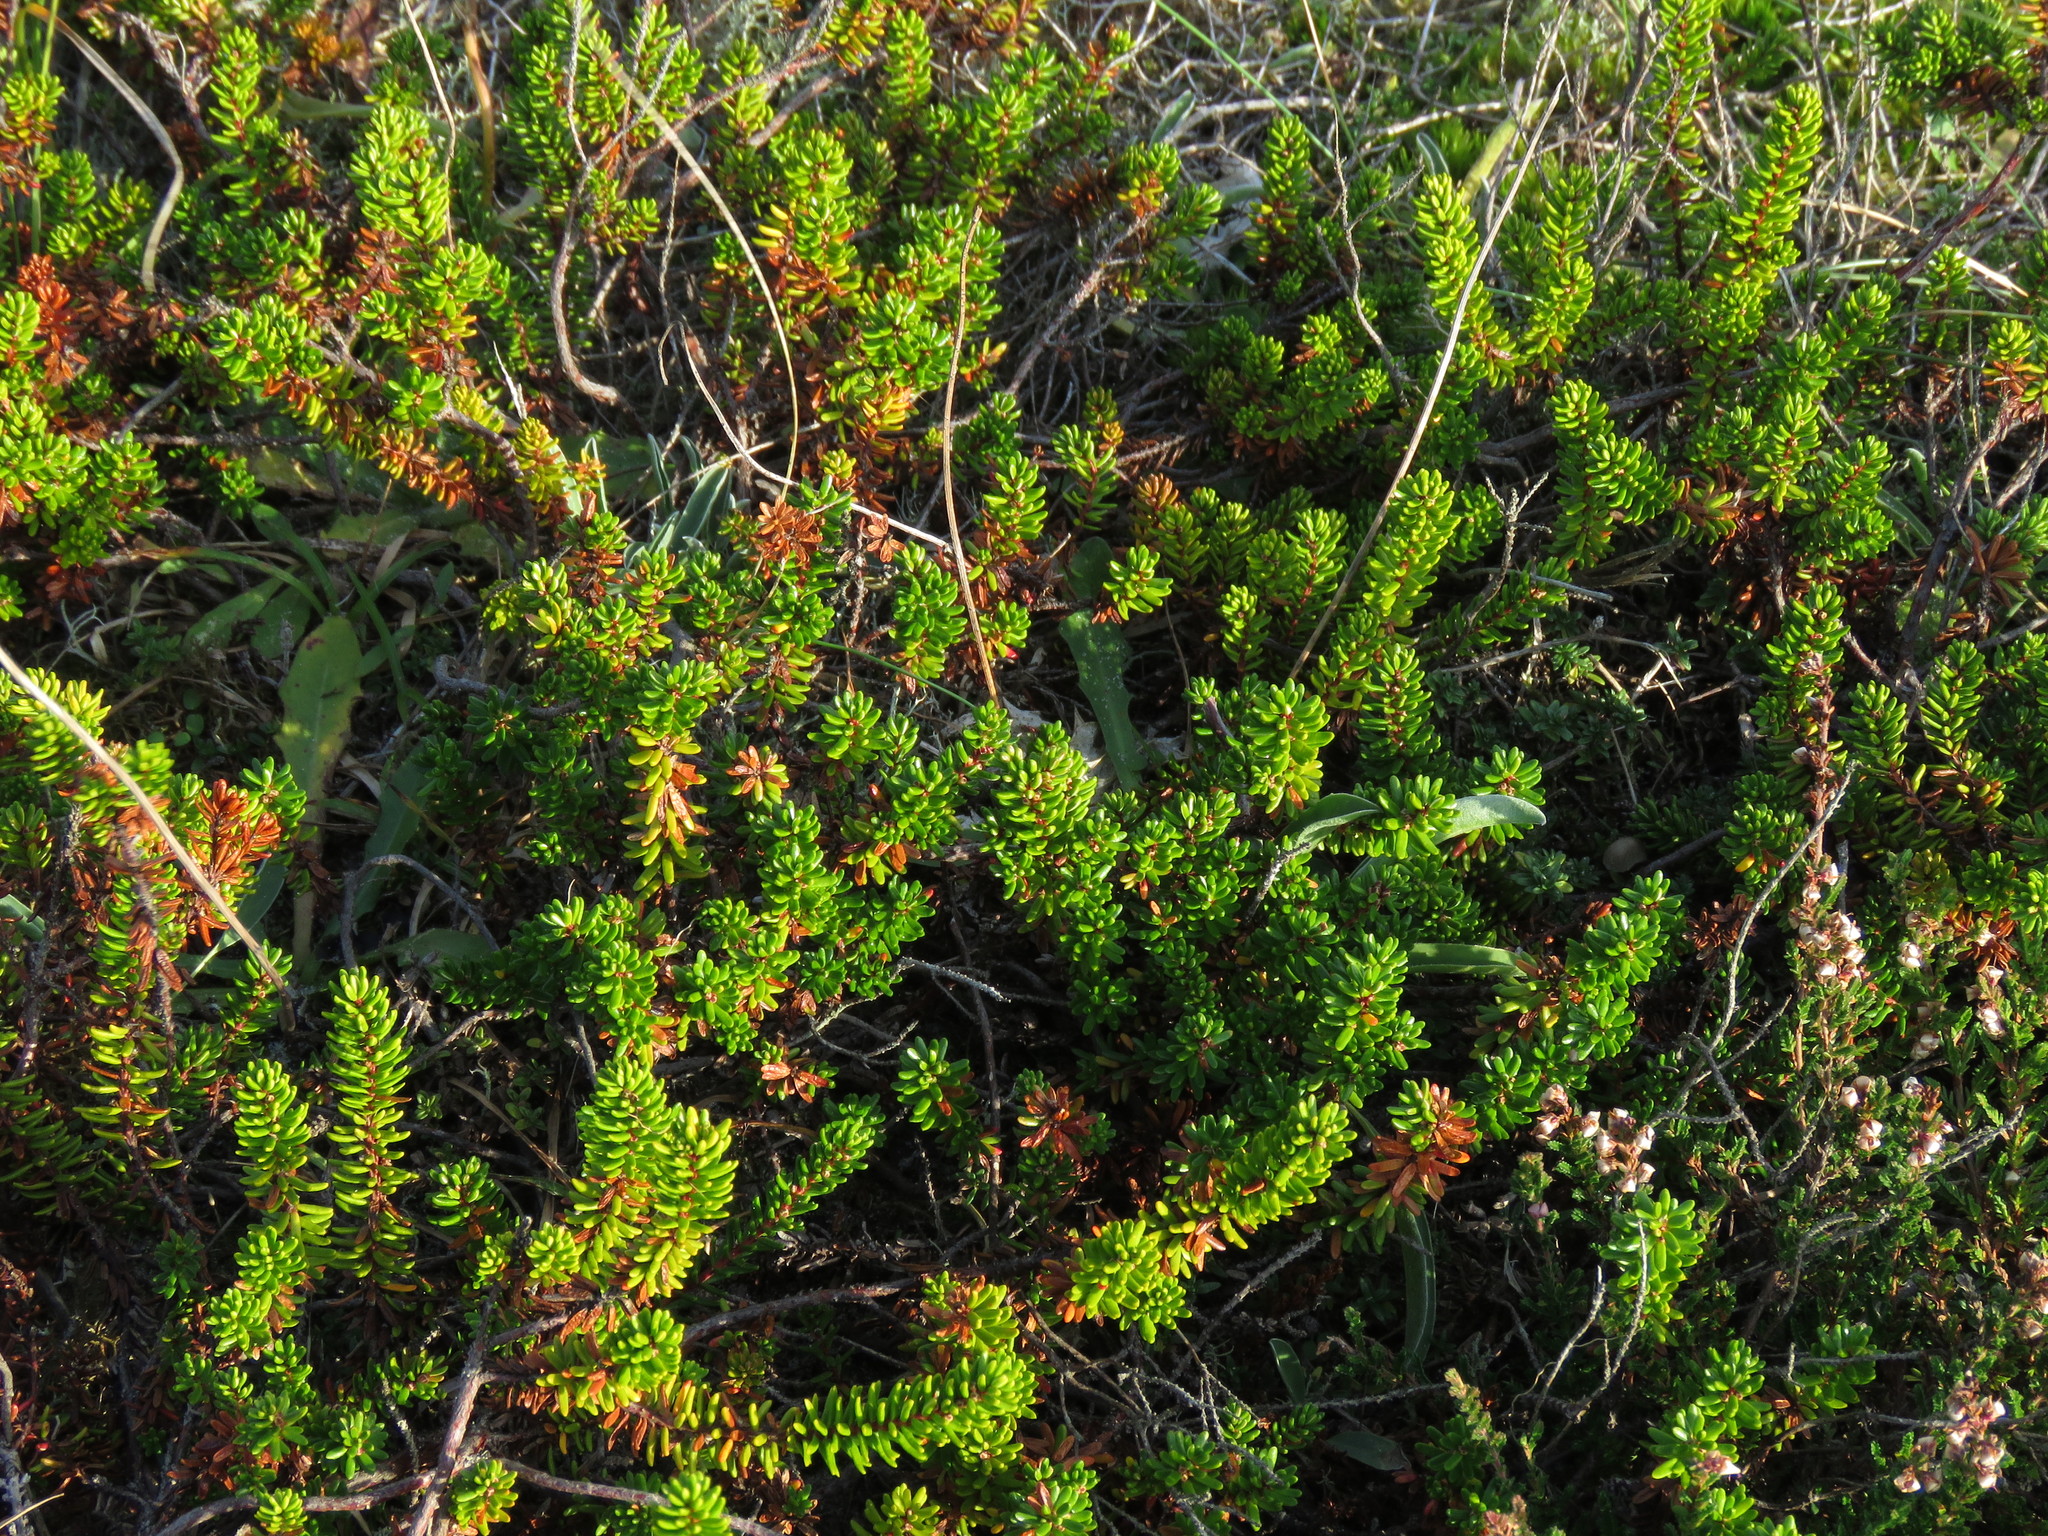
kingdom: Plantae
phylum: Tracheophyta
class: Magnoliopsida
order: Ericales
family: Ericaceae
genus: Empetrum
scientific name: Empetrum nigrum
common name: Black crowberry
